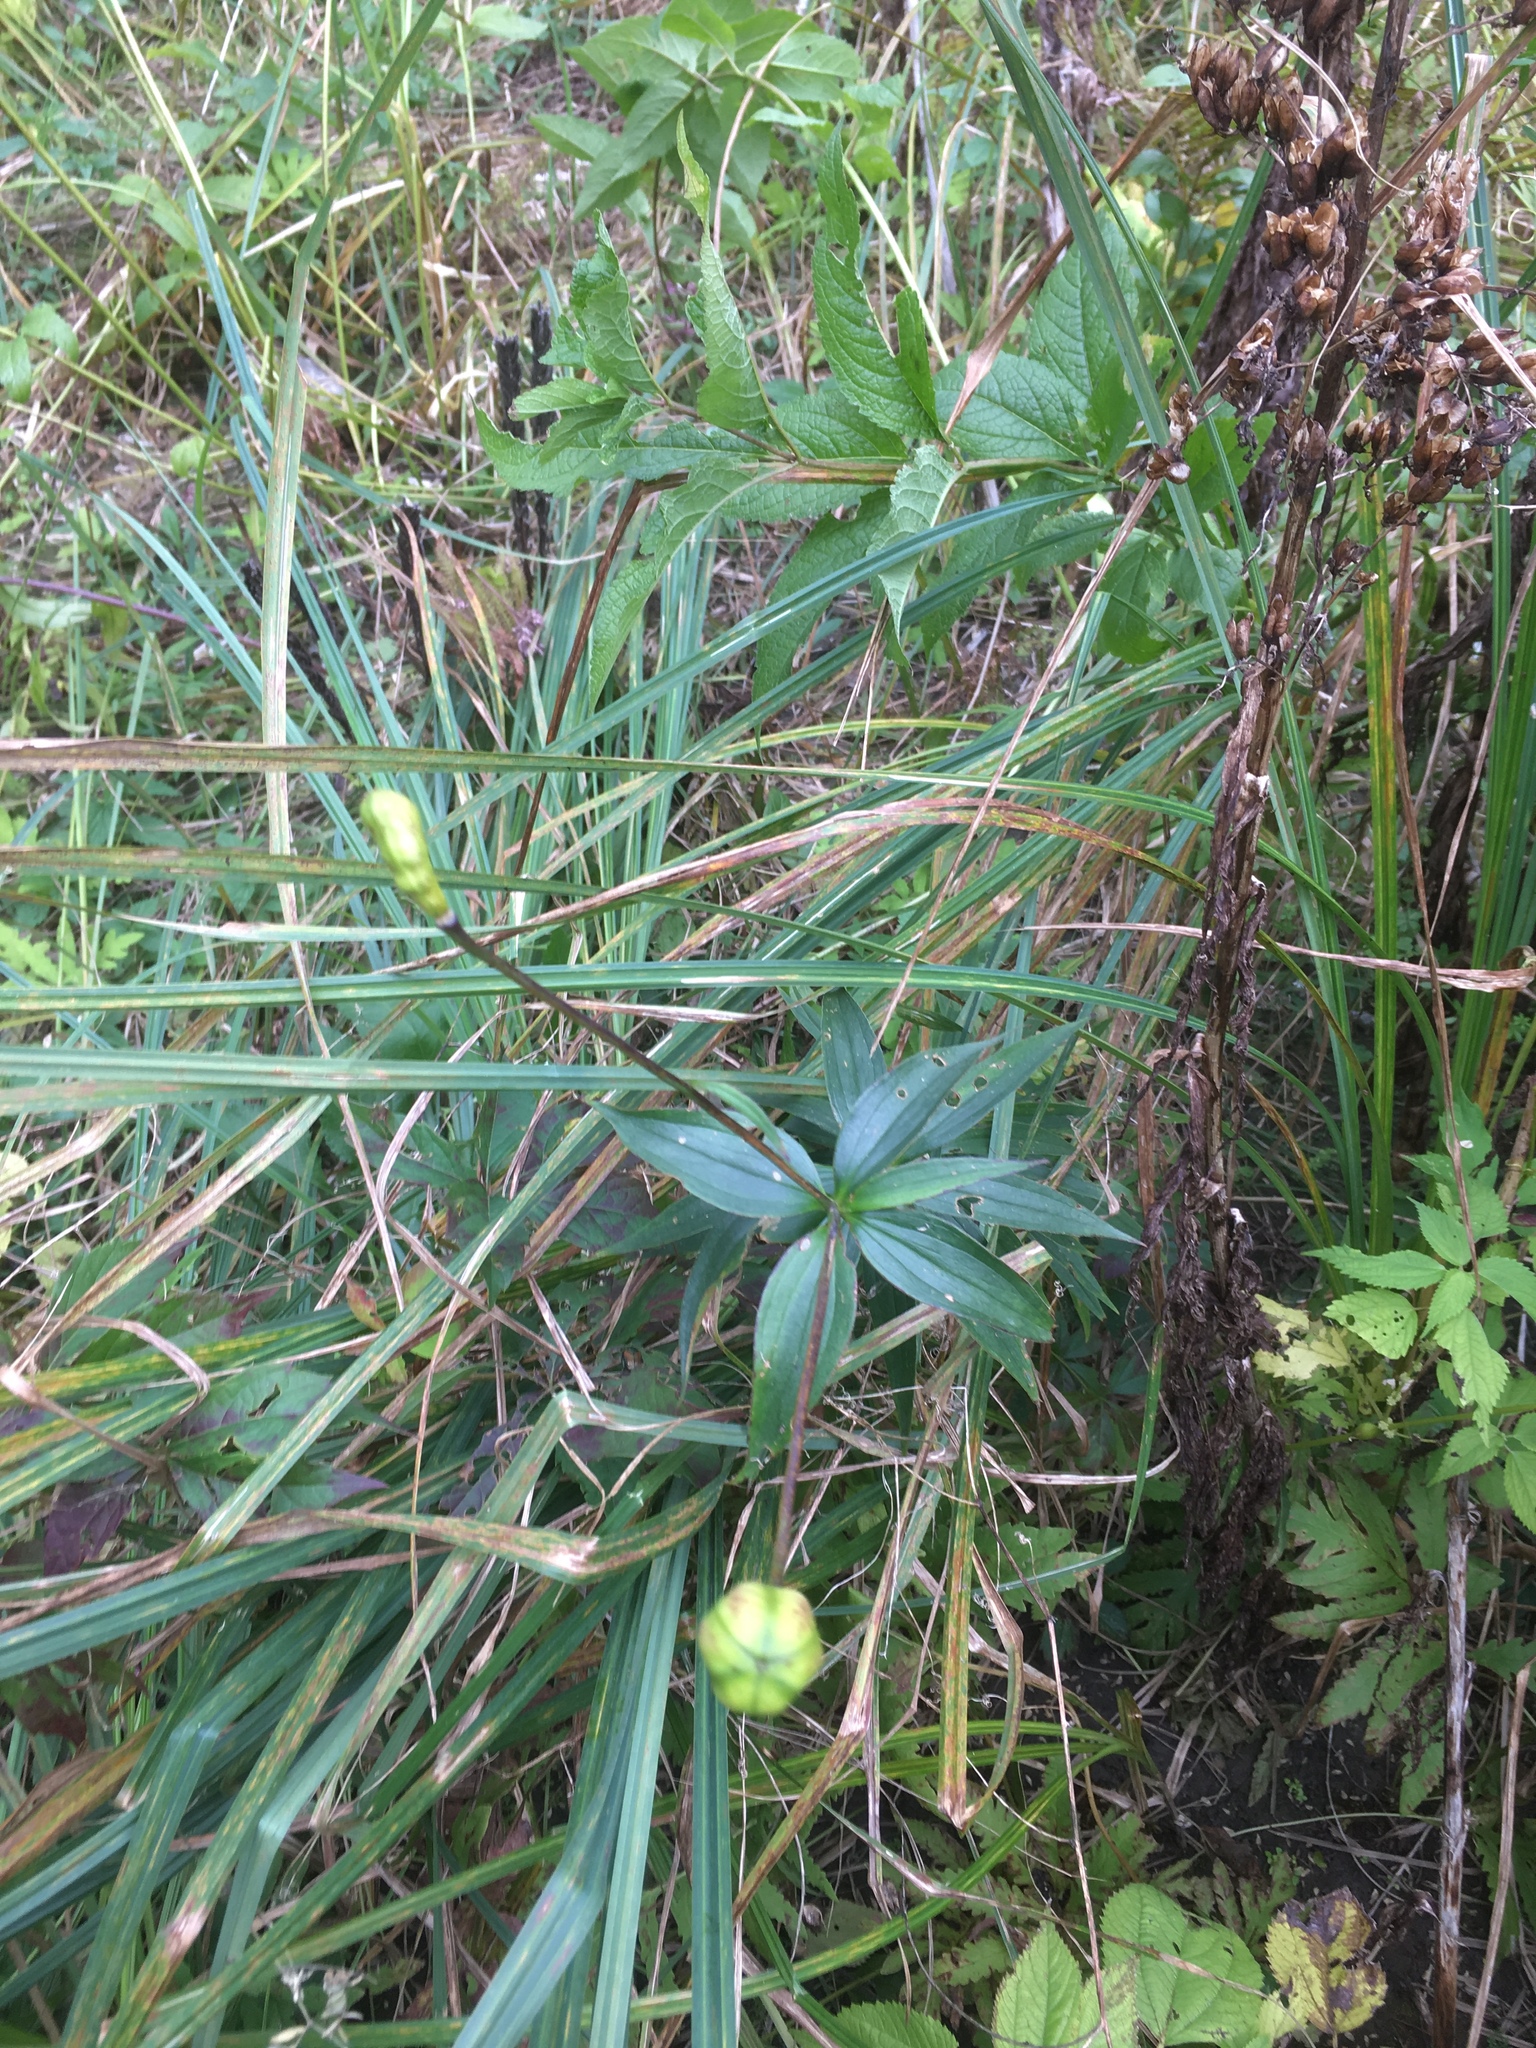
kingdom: Plantae
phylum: Tracheophyta
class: Liliopsida
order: Liliales
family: Liliaceae
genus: Lilium
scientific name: Lilium canadense
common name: Canada lily
